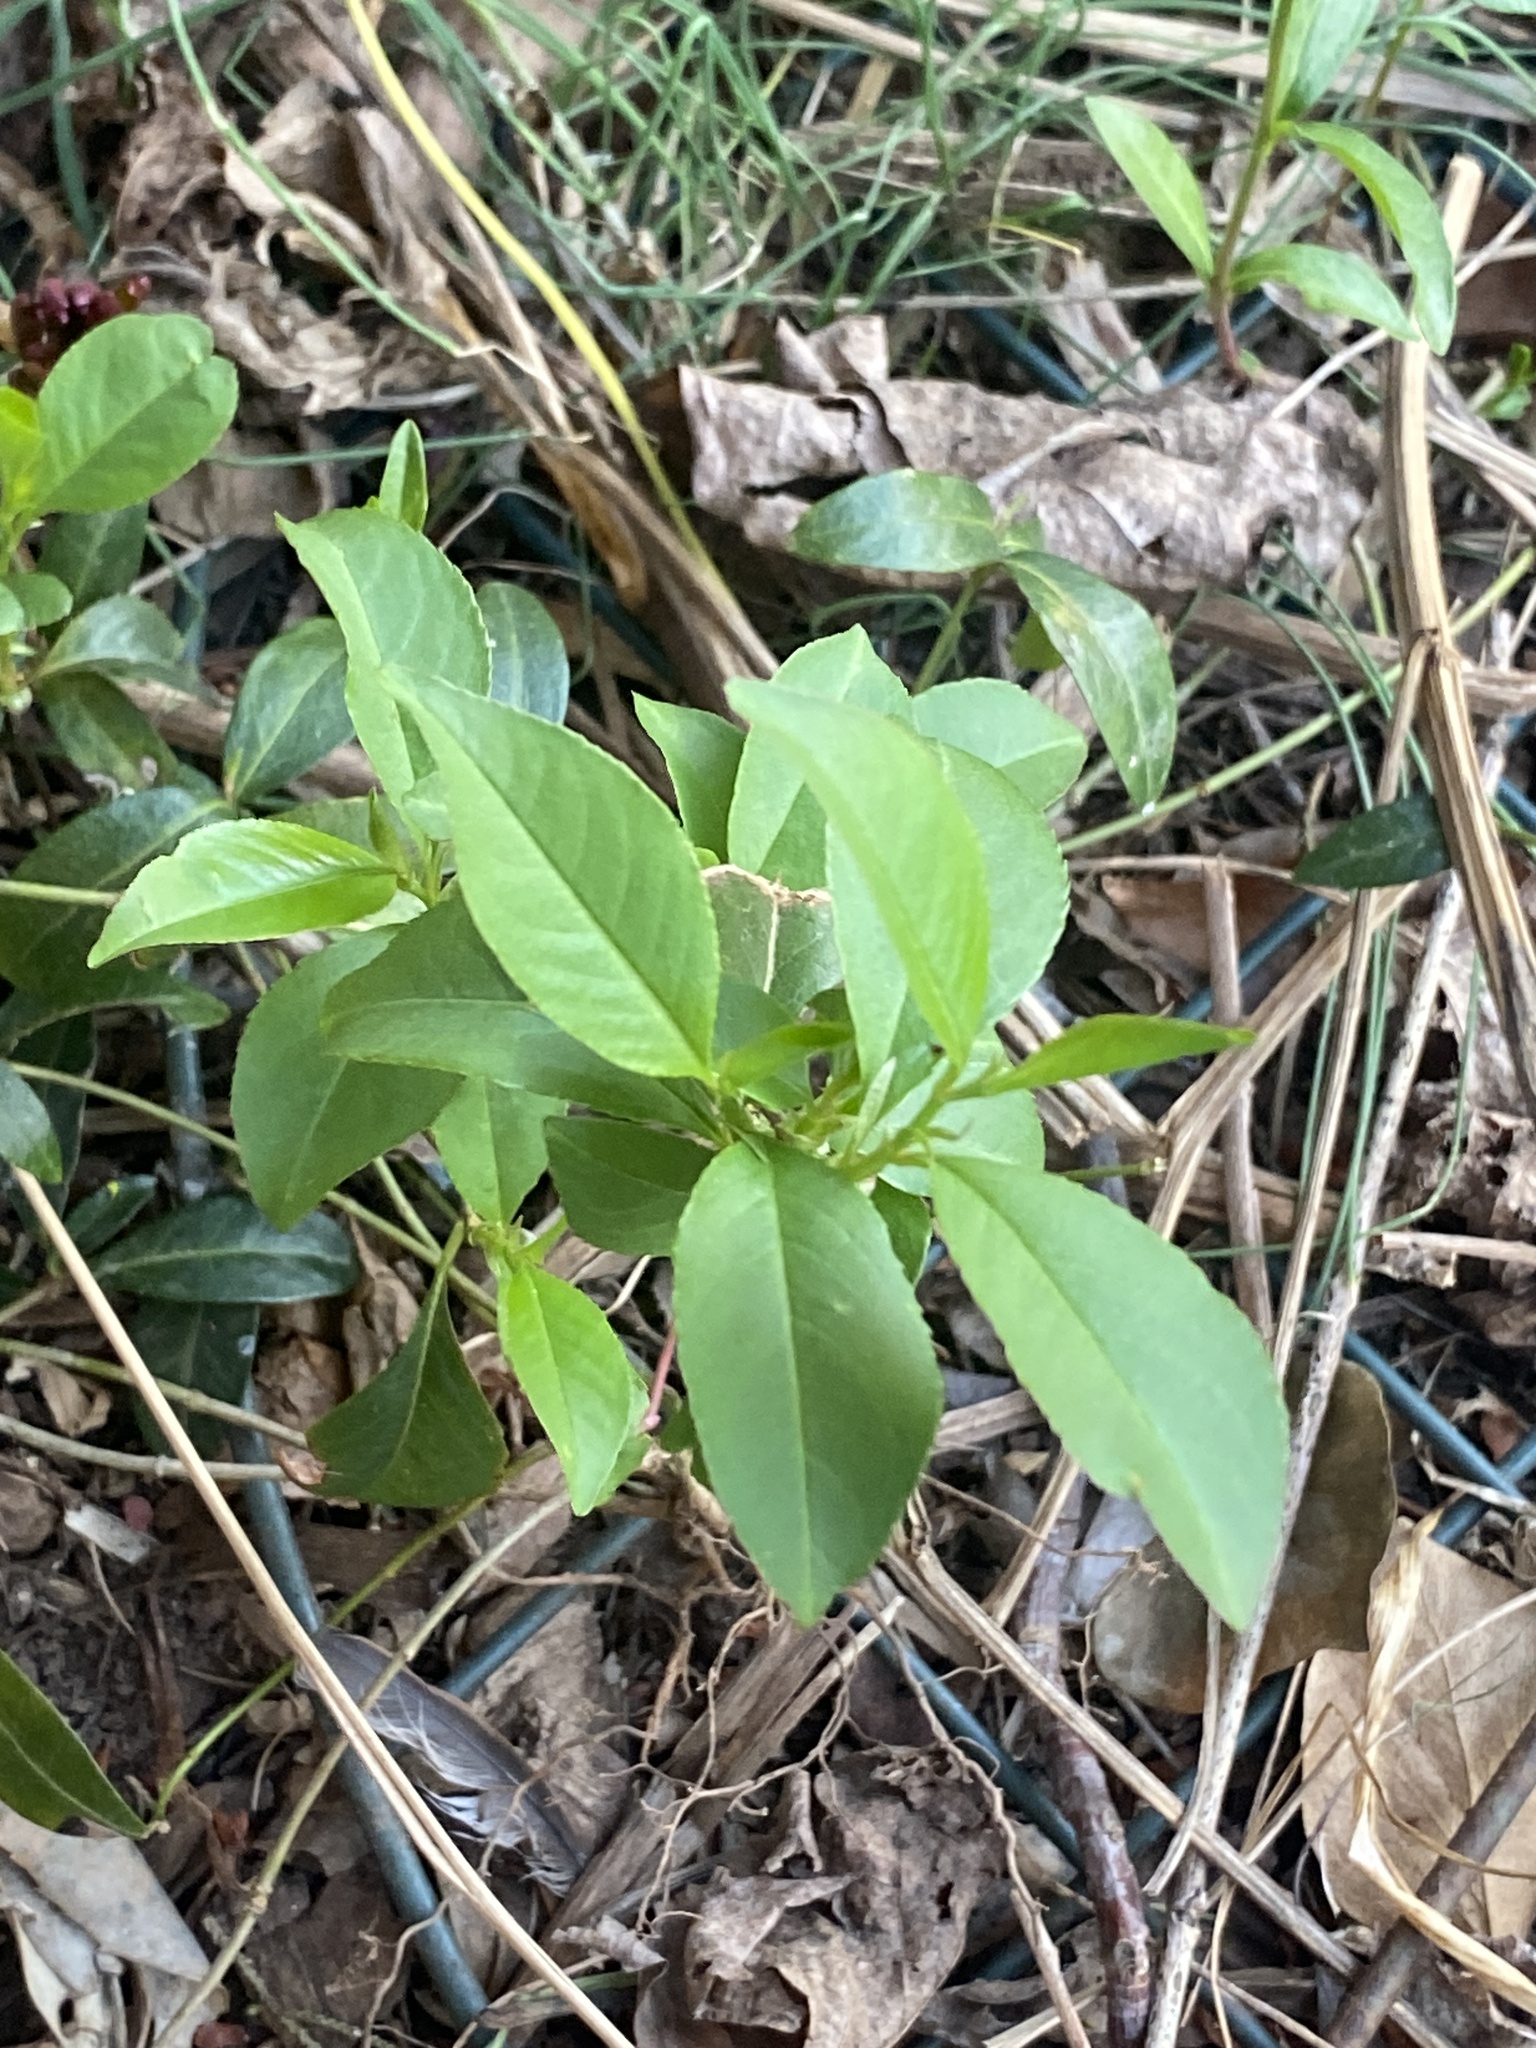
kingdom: Plantae
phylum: Tracheophyta
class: Magnoliopsida
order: Rosales
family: Rosaceae
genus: Prunus
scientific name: Prunus serotina
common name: Black cherry
